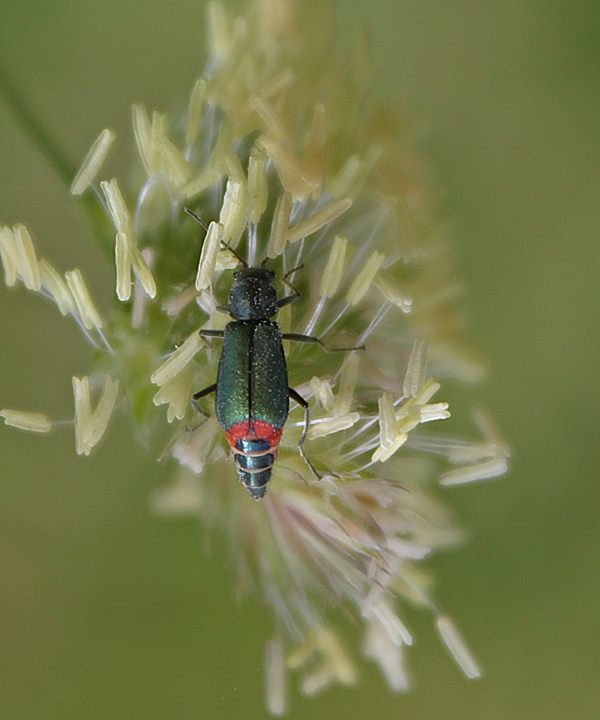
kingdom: Animalia
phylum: Arthropoda
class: Insecta
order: Coleoptera
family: Melyridae
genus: Malachius
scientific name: Malachius bipustulatus
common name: Malachite beetle
